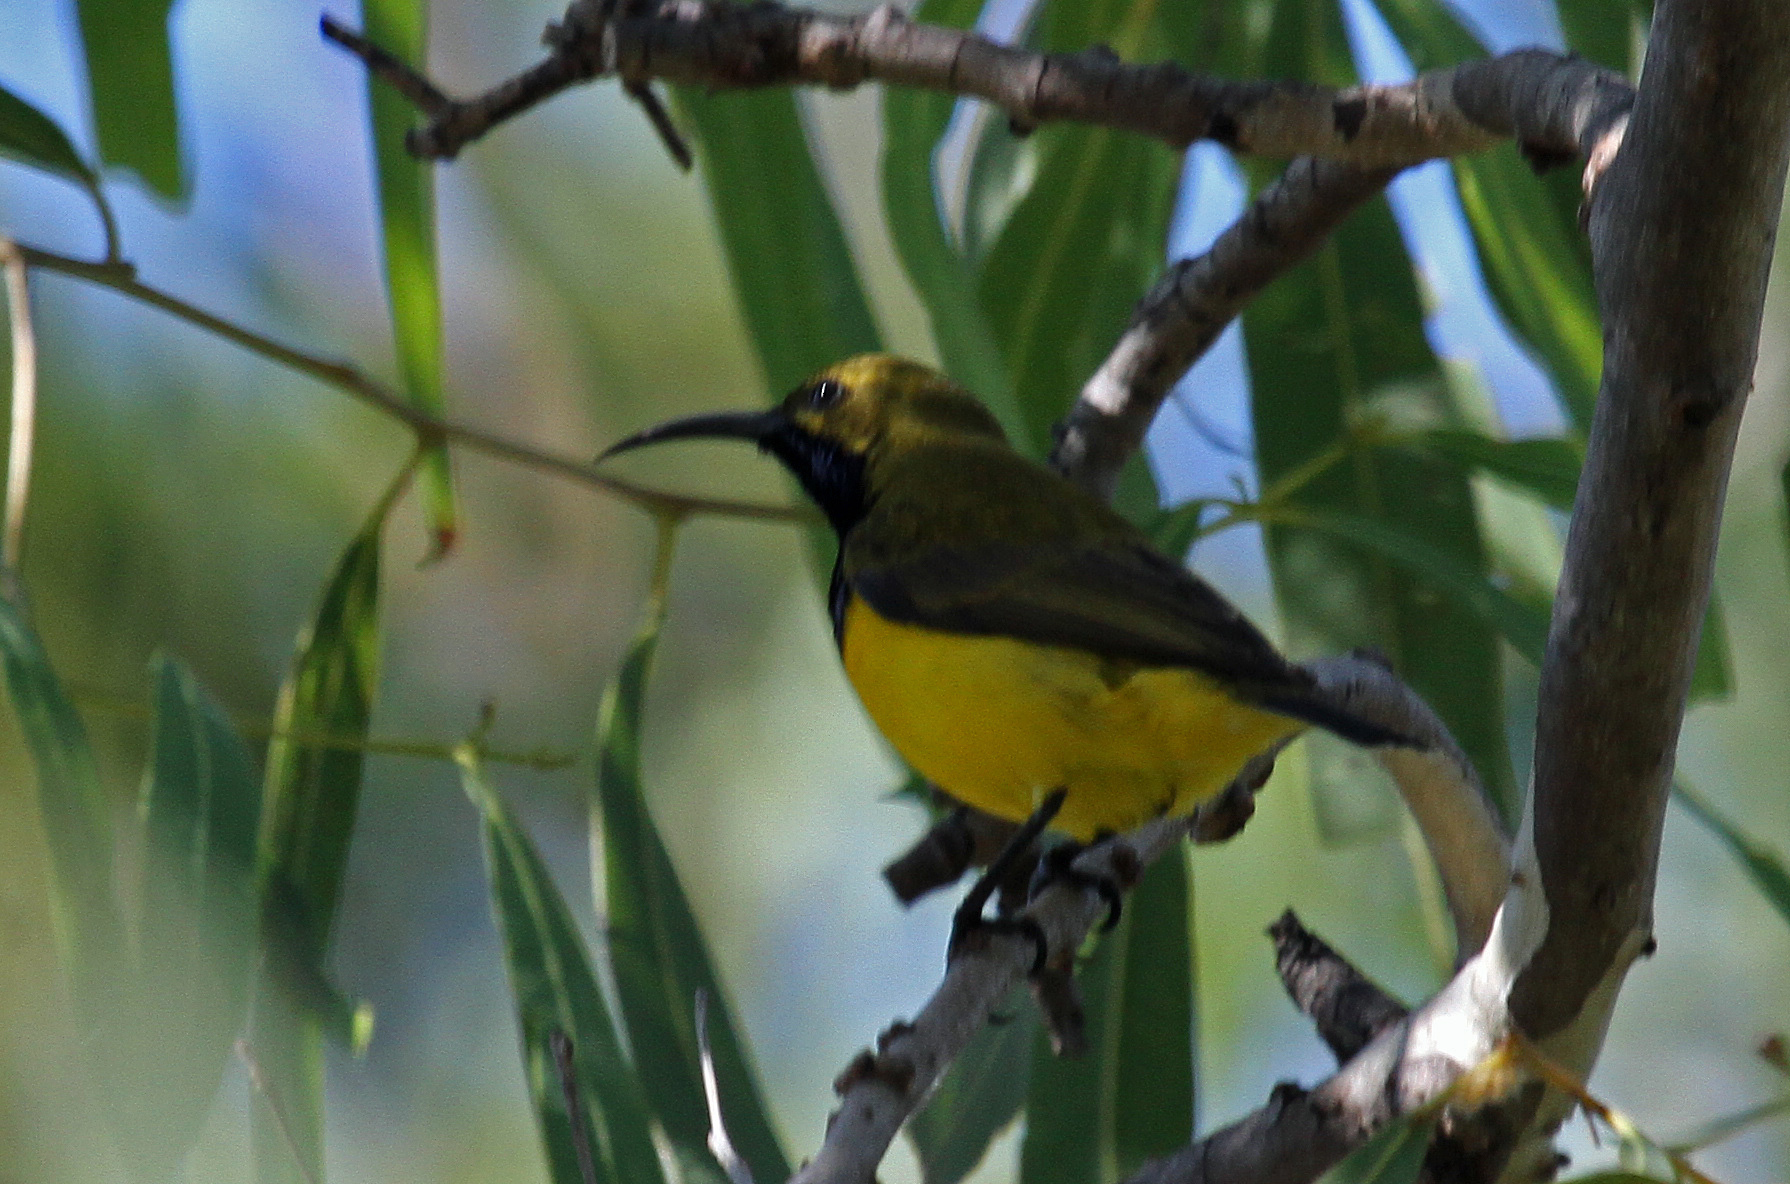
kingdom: Animalia
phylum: Chordata
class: Aves
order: Passeriformes
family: Nectariniidae
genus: Cinnyris
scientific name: Cinnyris
